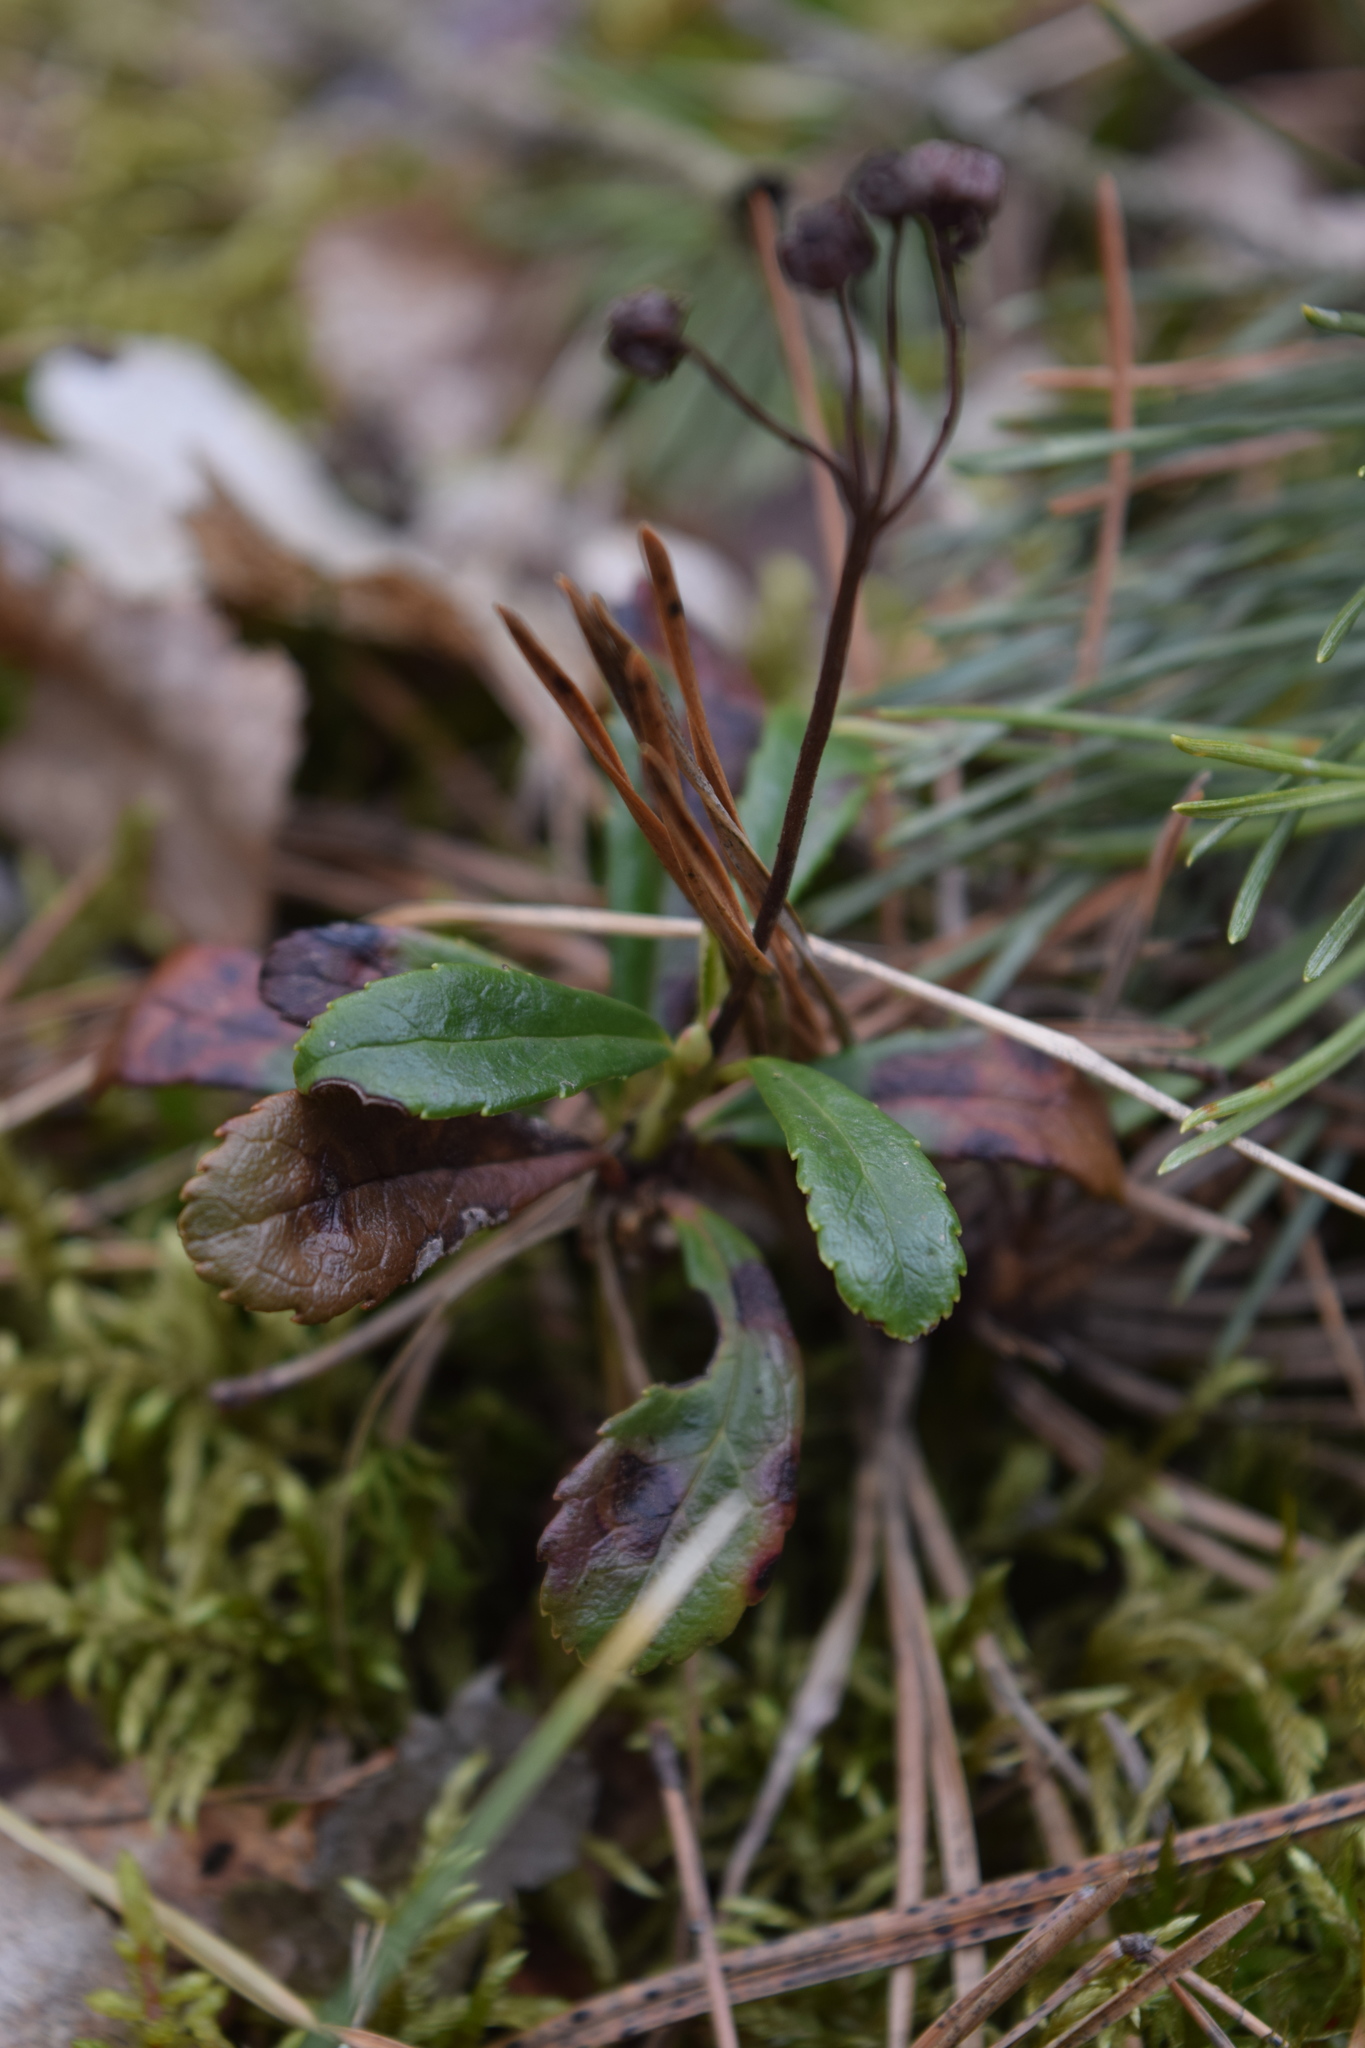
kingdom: Plantae
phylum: Tracheophyta
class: Magnoliopsida
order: Ericales
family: Ericaceae
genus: Chimaphila
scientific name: Chimaphila umbellata
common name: Pipsissewa
